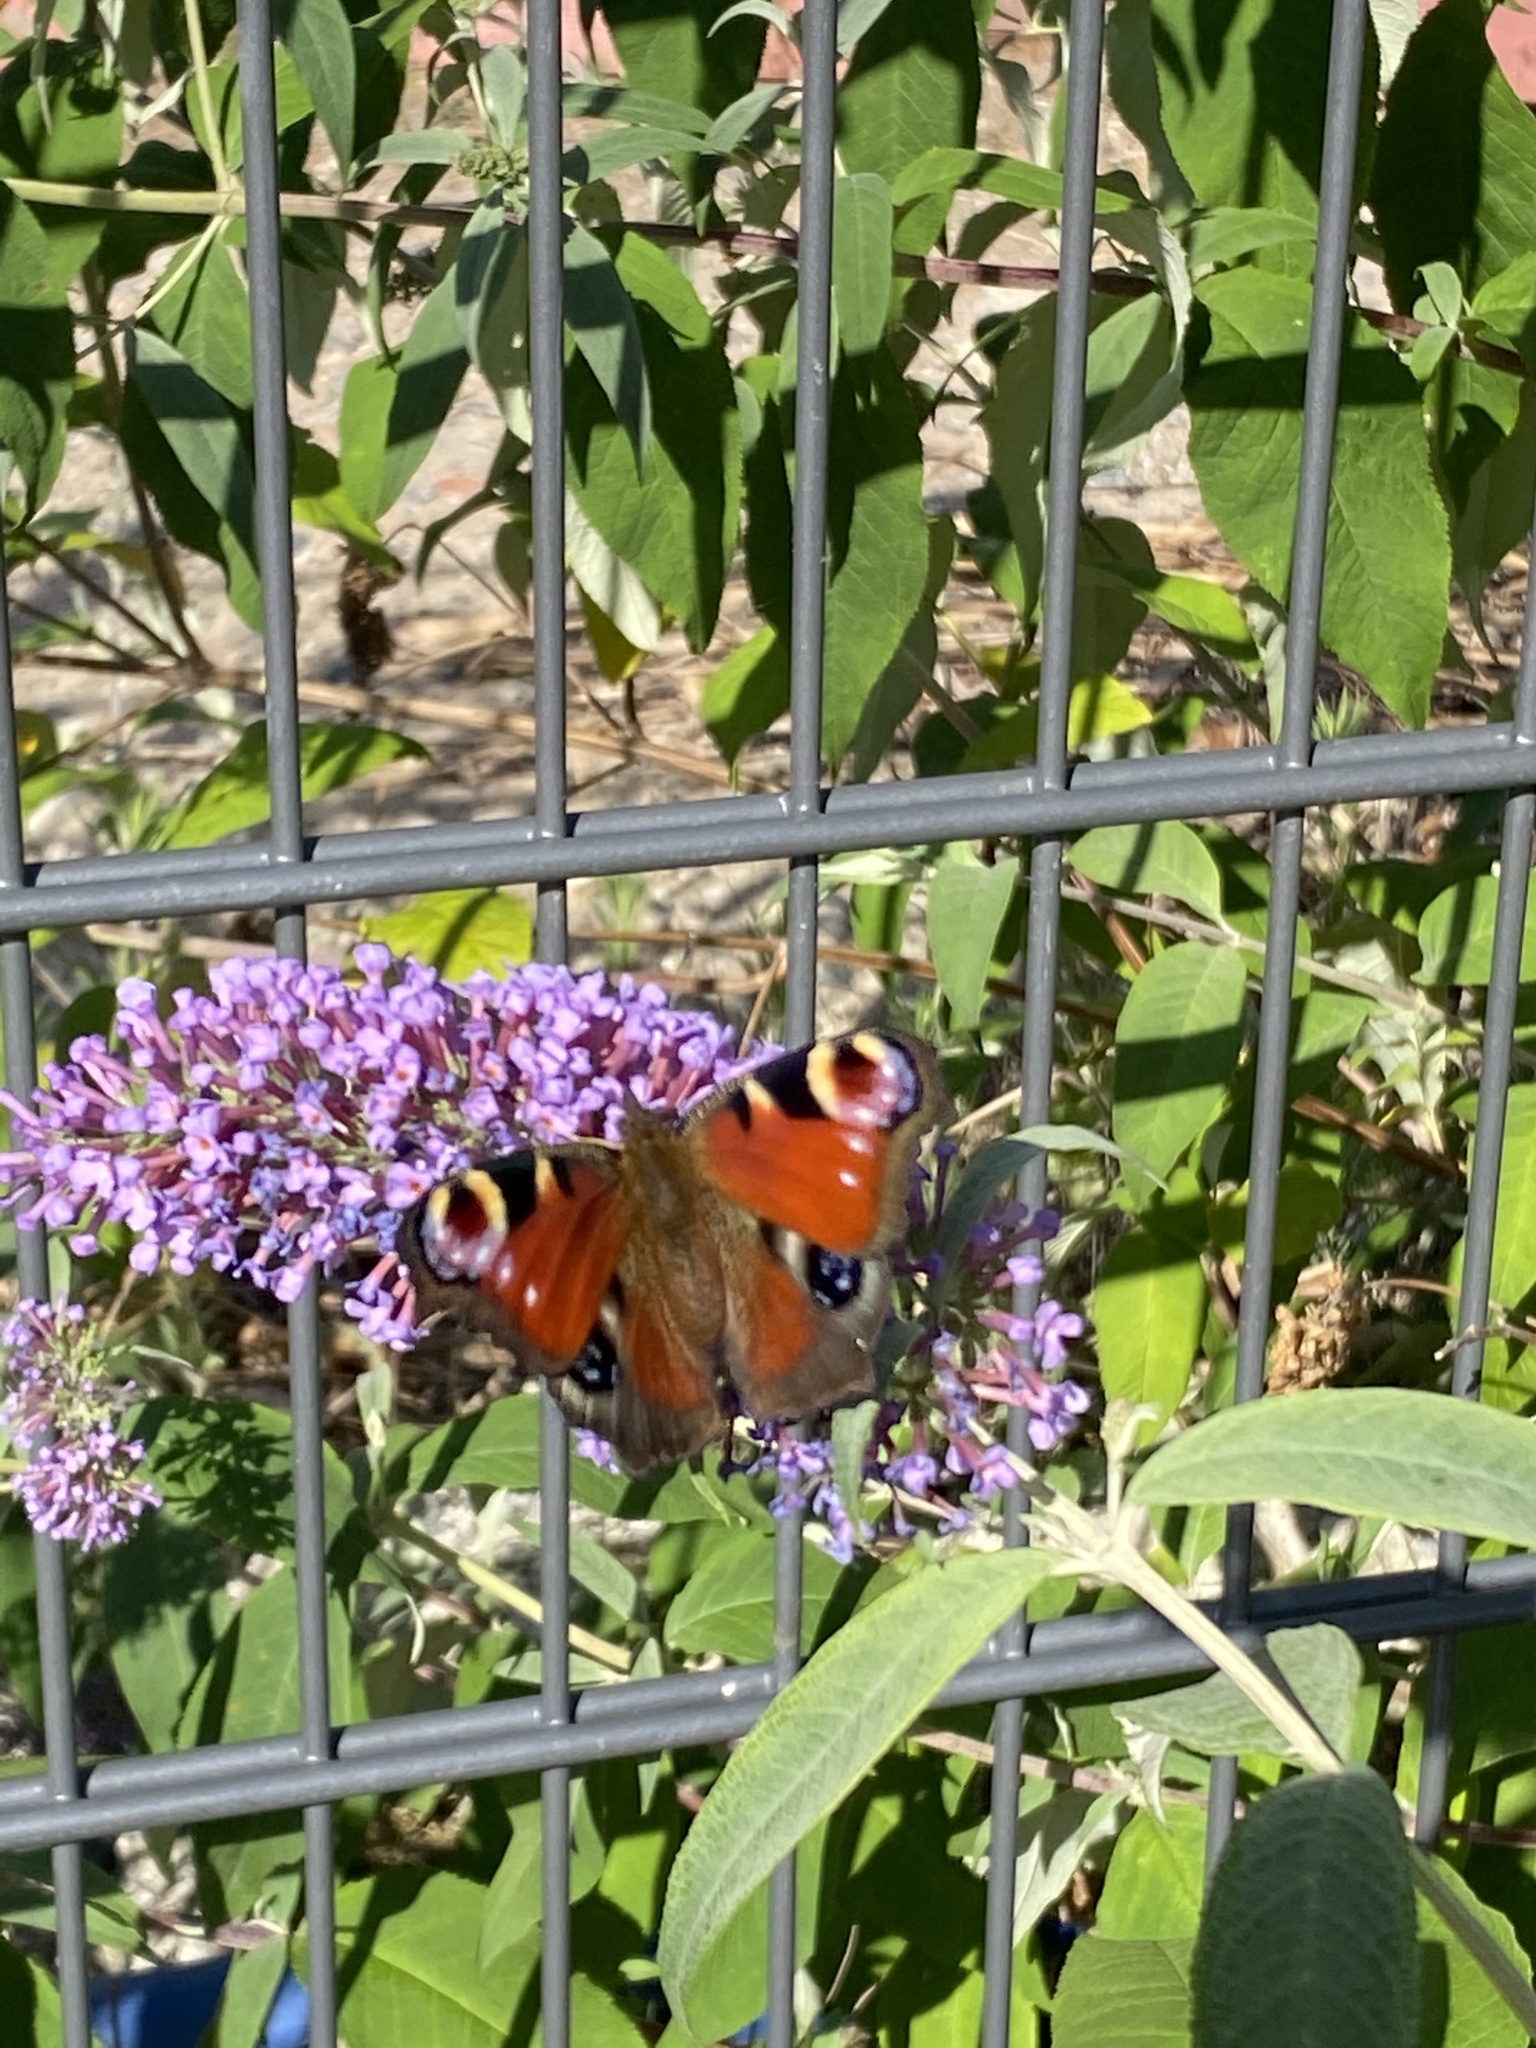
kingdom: Animalia
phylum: Arthropoda
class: Insecta
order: Lepidoptera
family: Nymphalidae
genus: Aglais
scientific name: Aglais io
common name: Peacock
